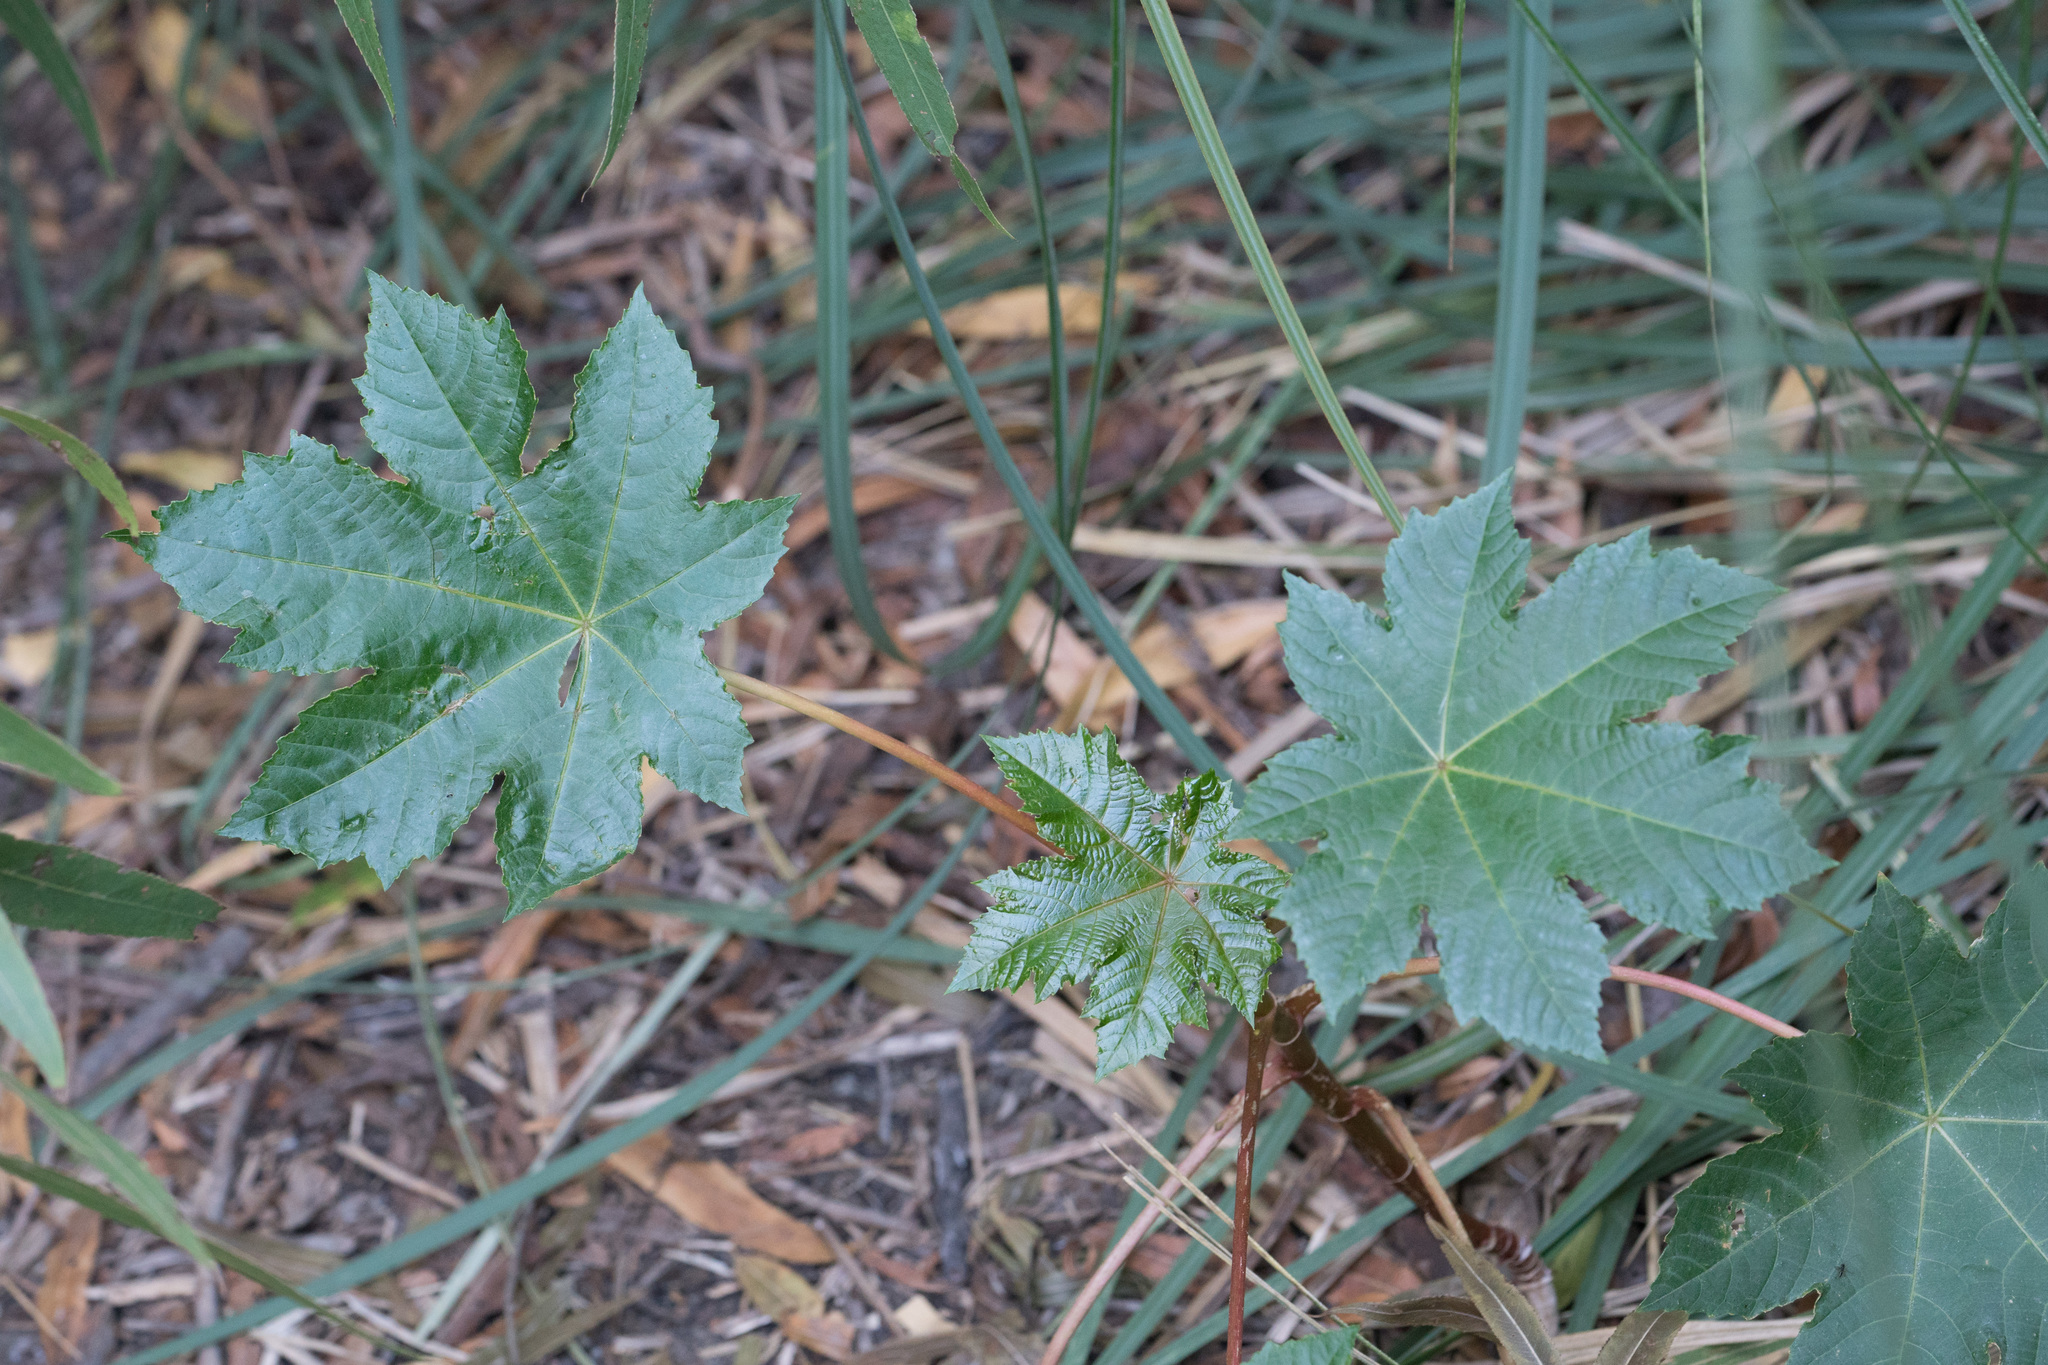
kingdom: Plantae
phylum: Tracheophyta
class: Magnoliopsida
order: Malpighiales
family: Euphorbiaceae
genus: Ricinus
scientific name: Ricinus communis
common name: Castor-oil-plant
